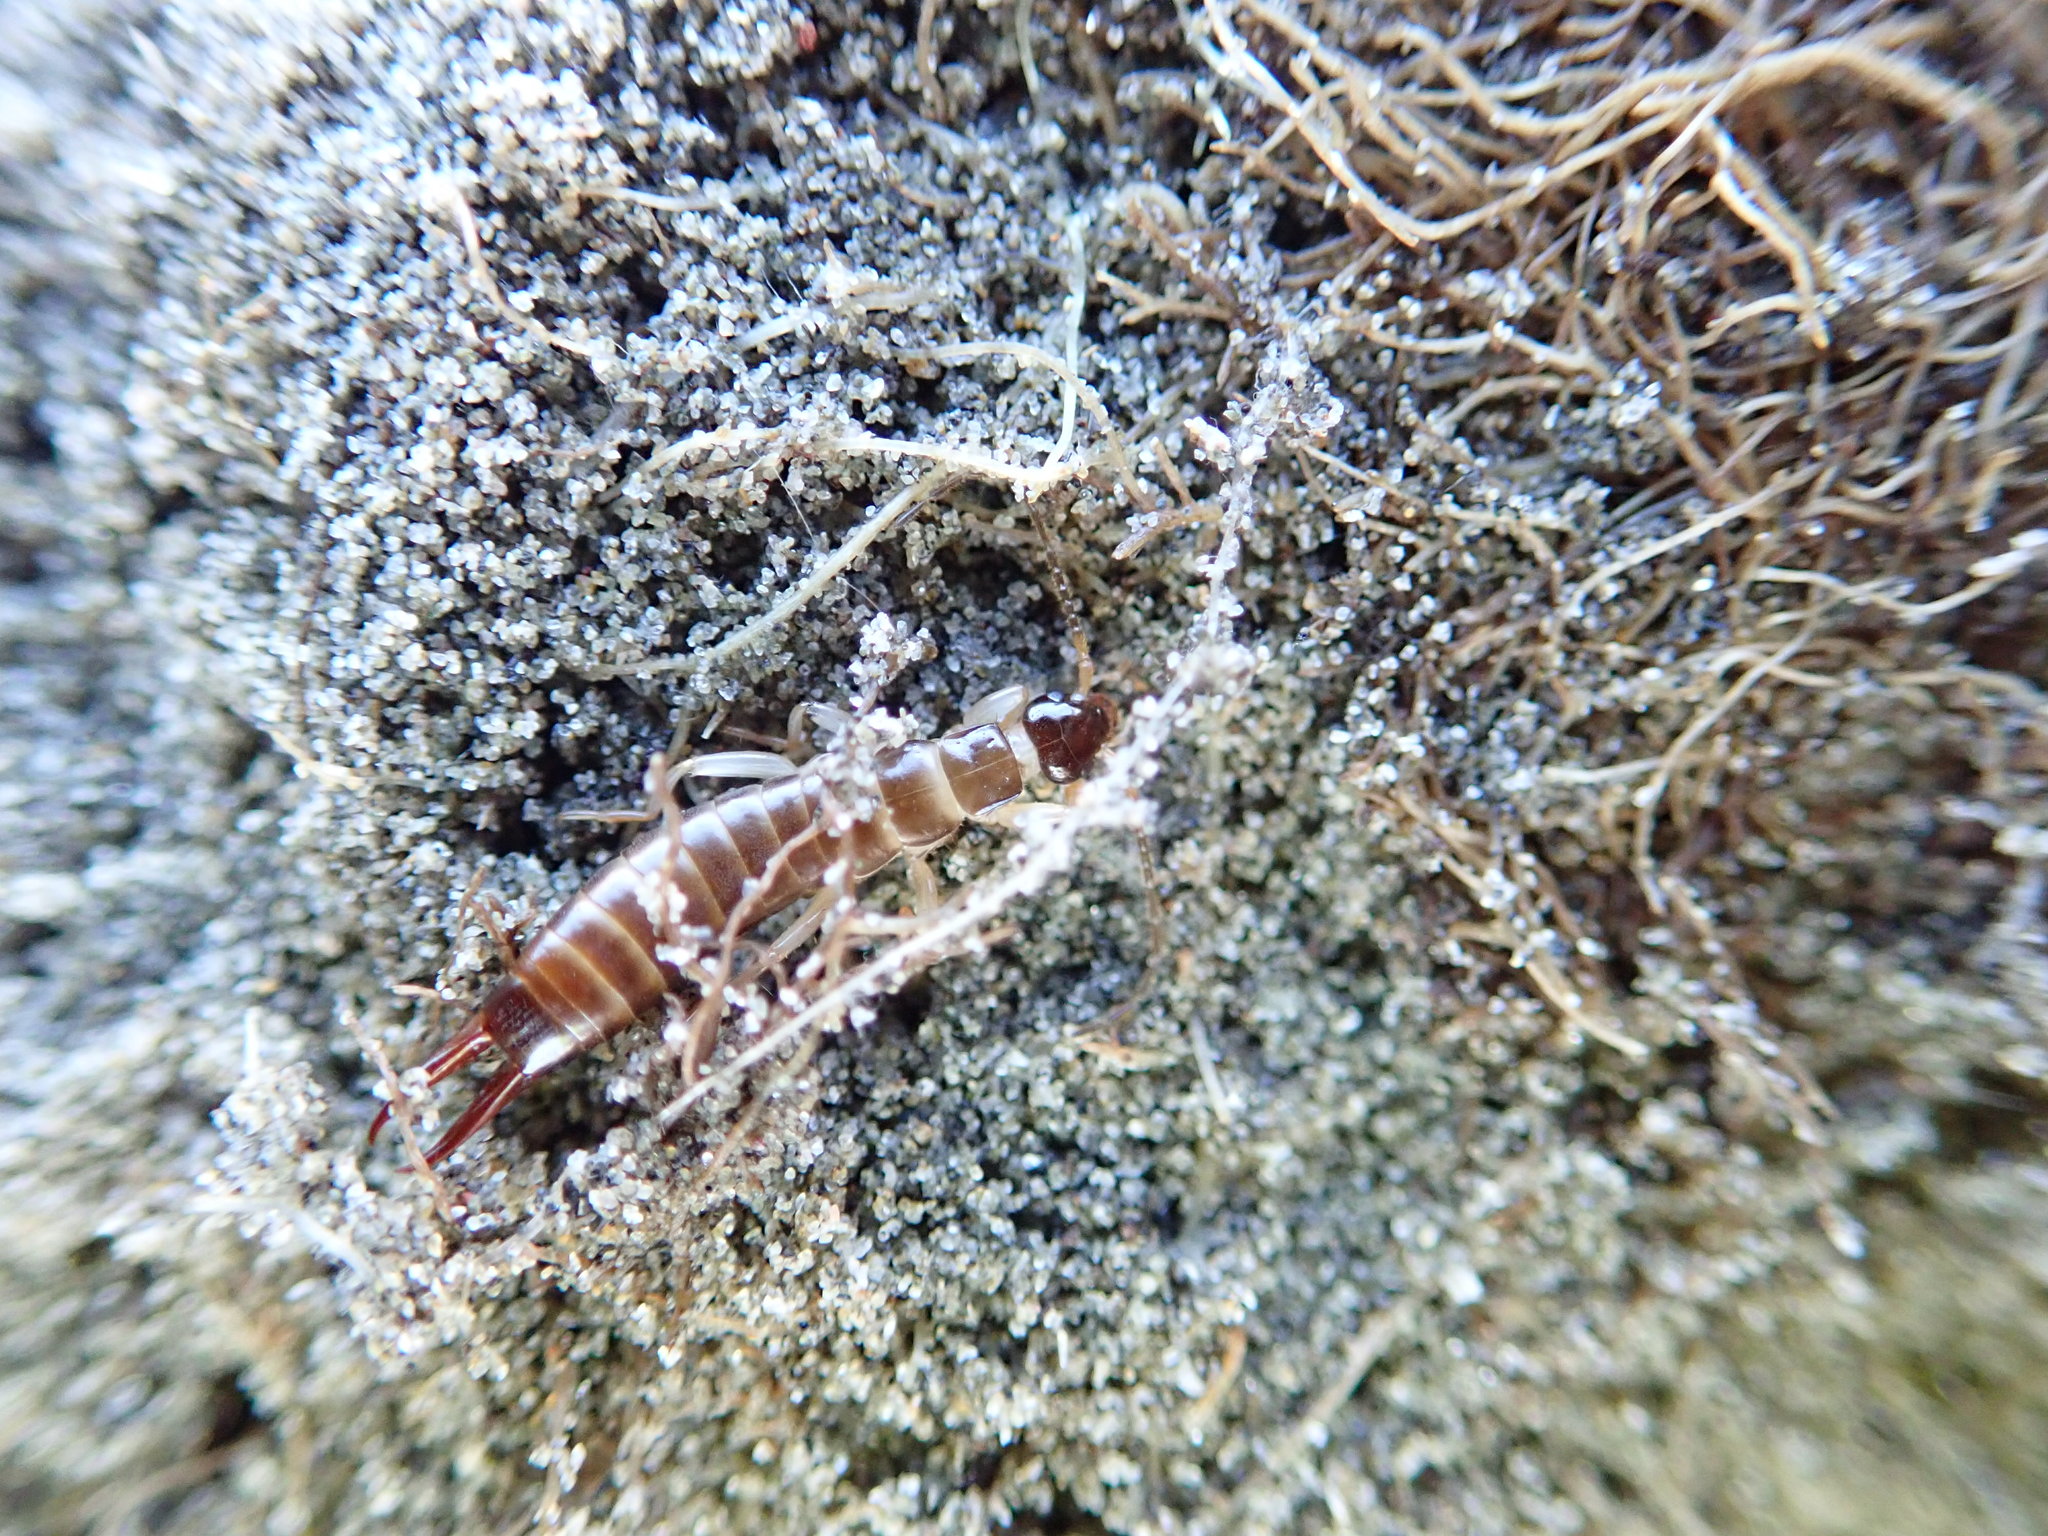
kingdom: Animalia
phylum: Arthropoda
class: Insecta
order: Dermaptera
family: Anisolabididae
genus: Anisolabis
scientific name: Anisolabis littorea
